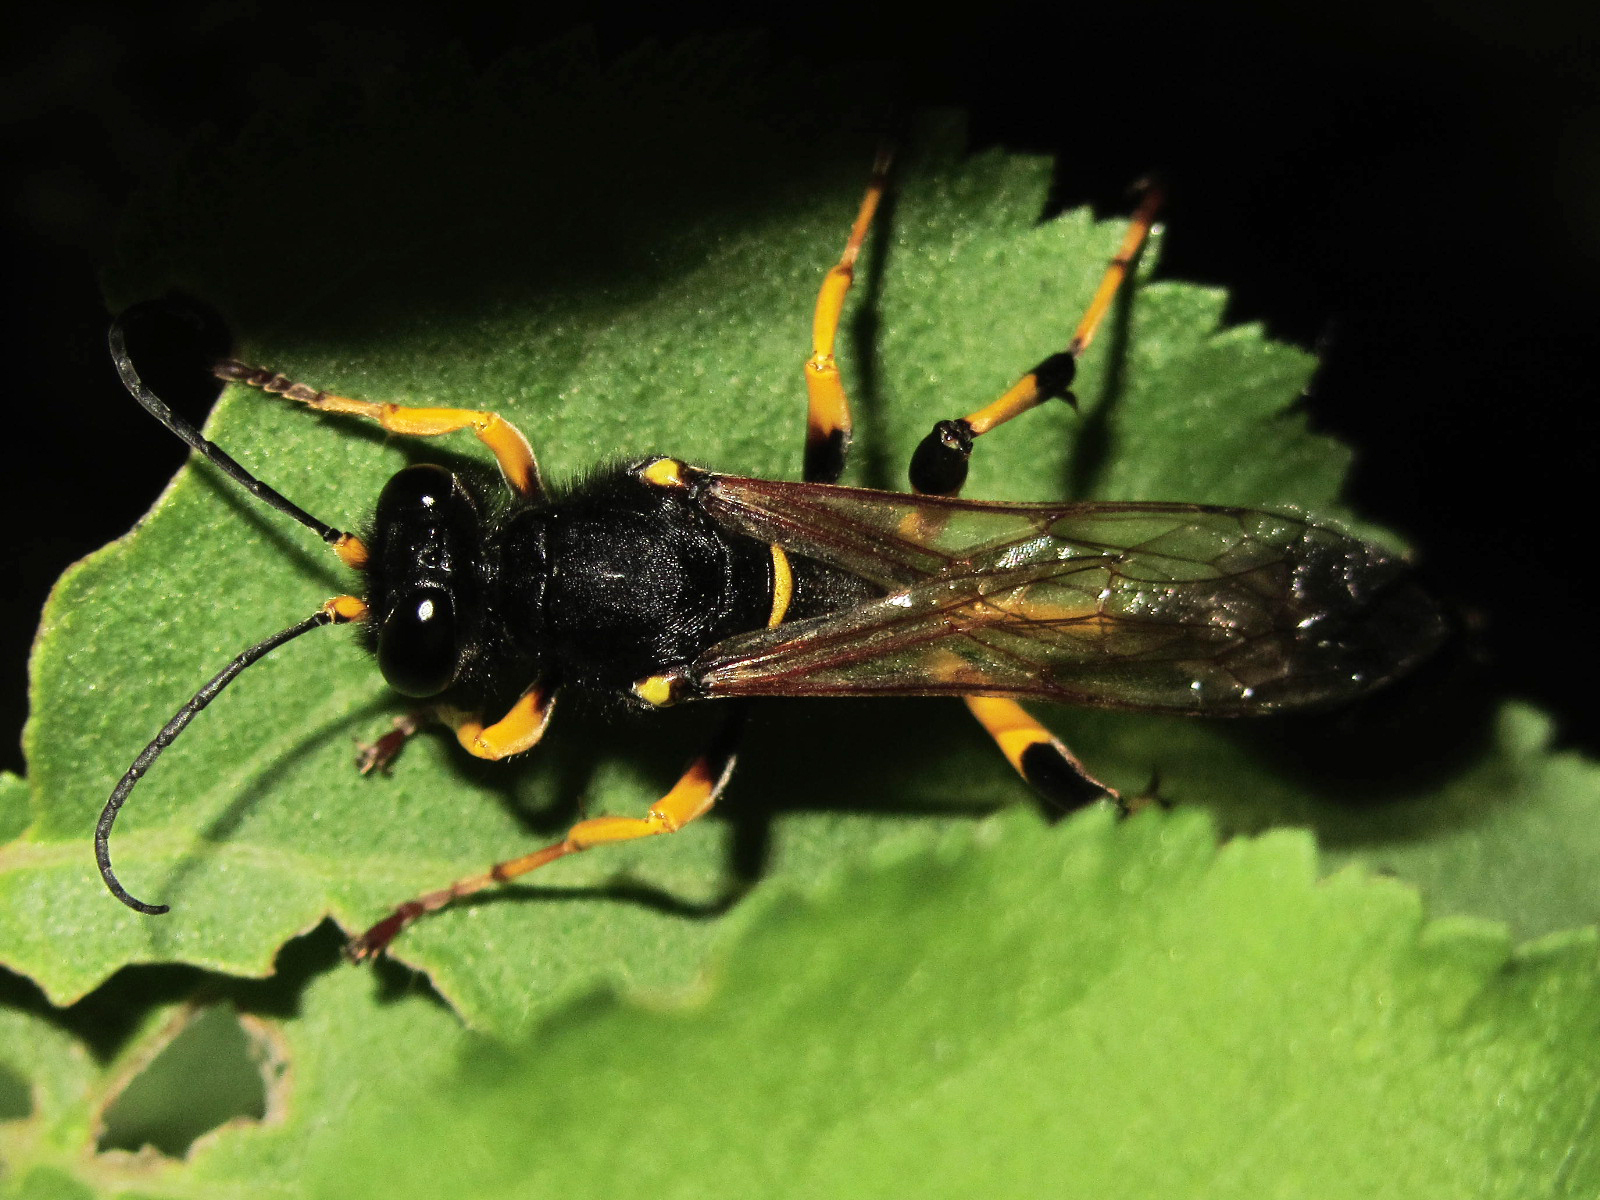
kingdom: Animalia
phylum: Arthropoda
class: Insecta
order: Hymenoptera
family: Sphecidae
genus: Sceliphron
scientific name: Sceliphron destillatorium
